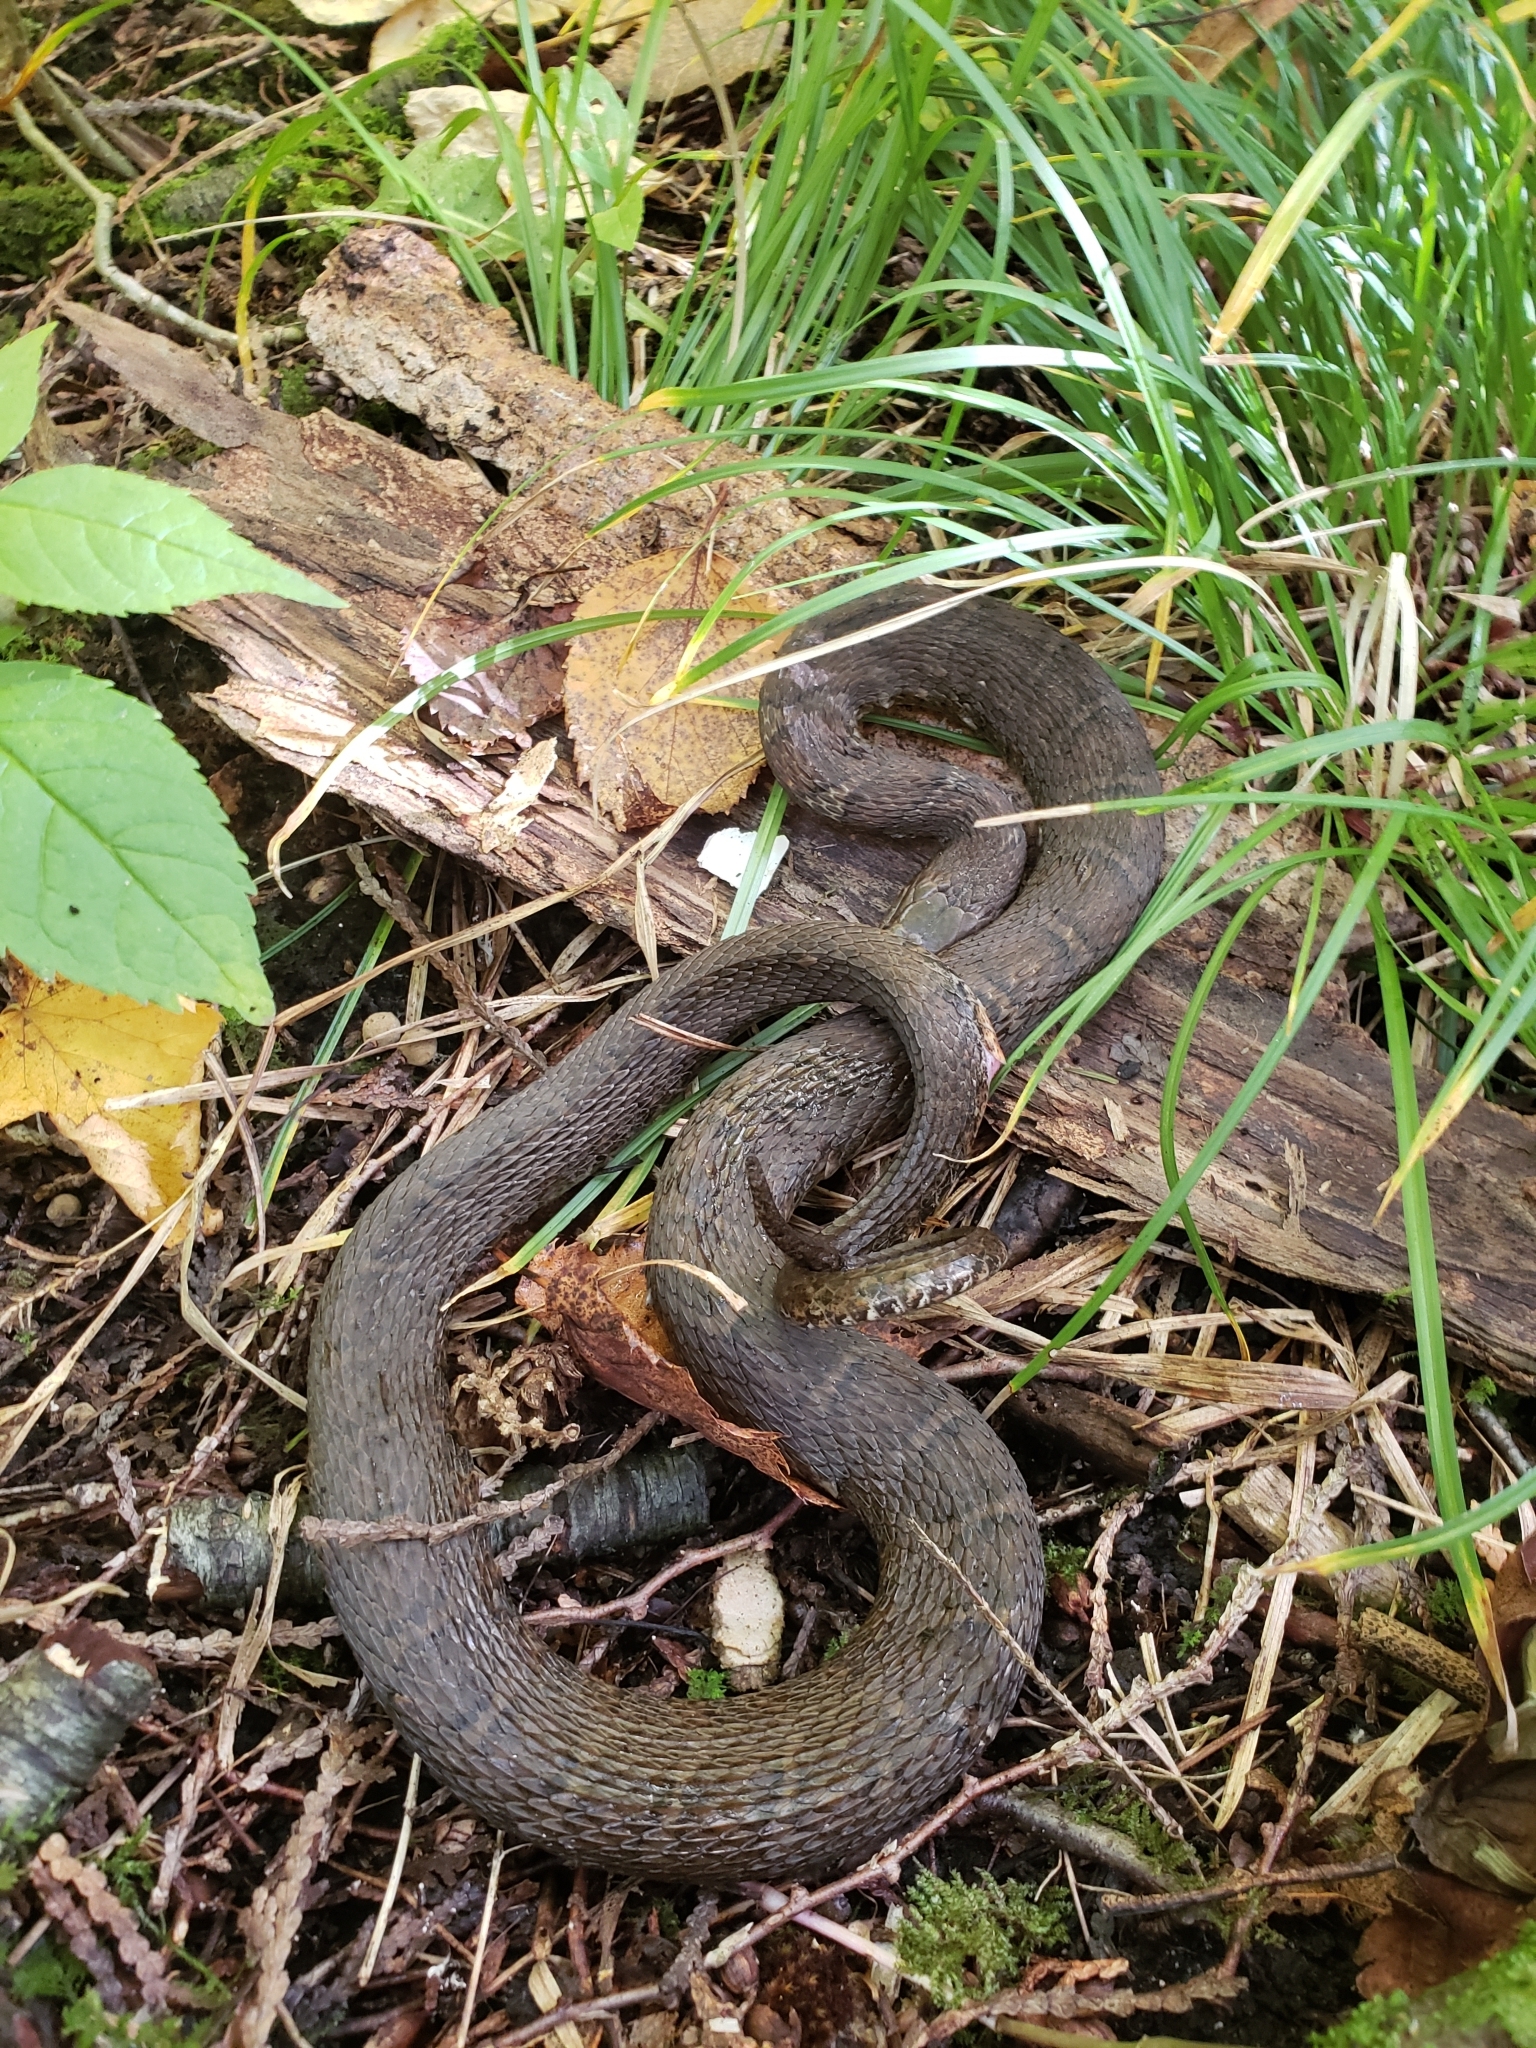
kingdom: Animalia
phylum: Chordata
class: Squamata
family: Colubridae
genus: Nerodia
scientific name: Nerodia sipedon
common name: Northern water snake
